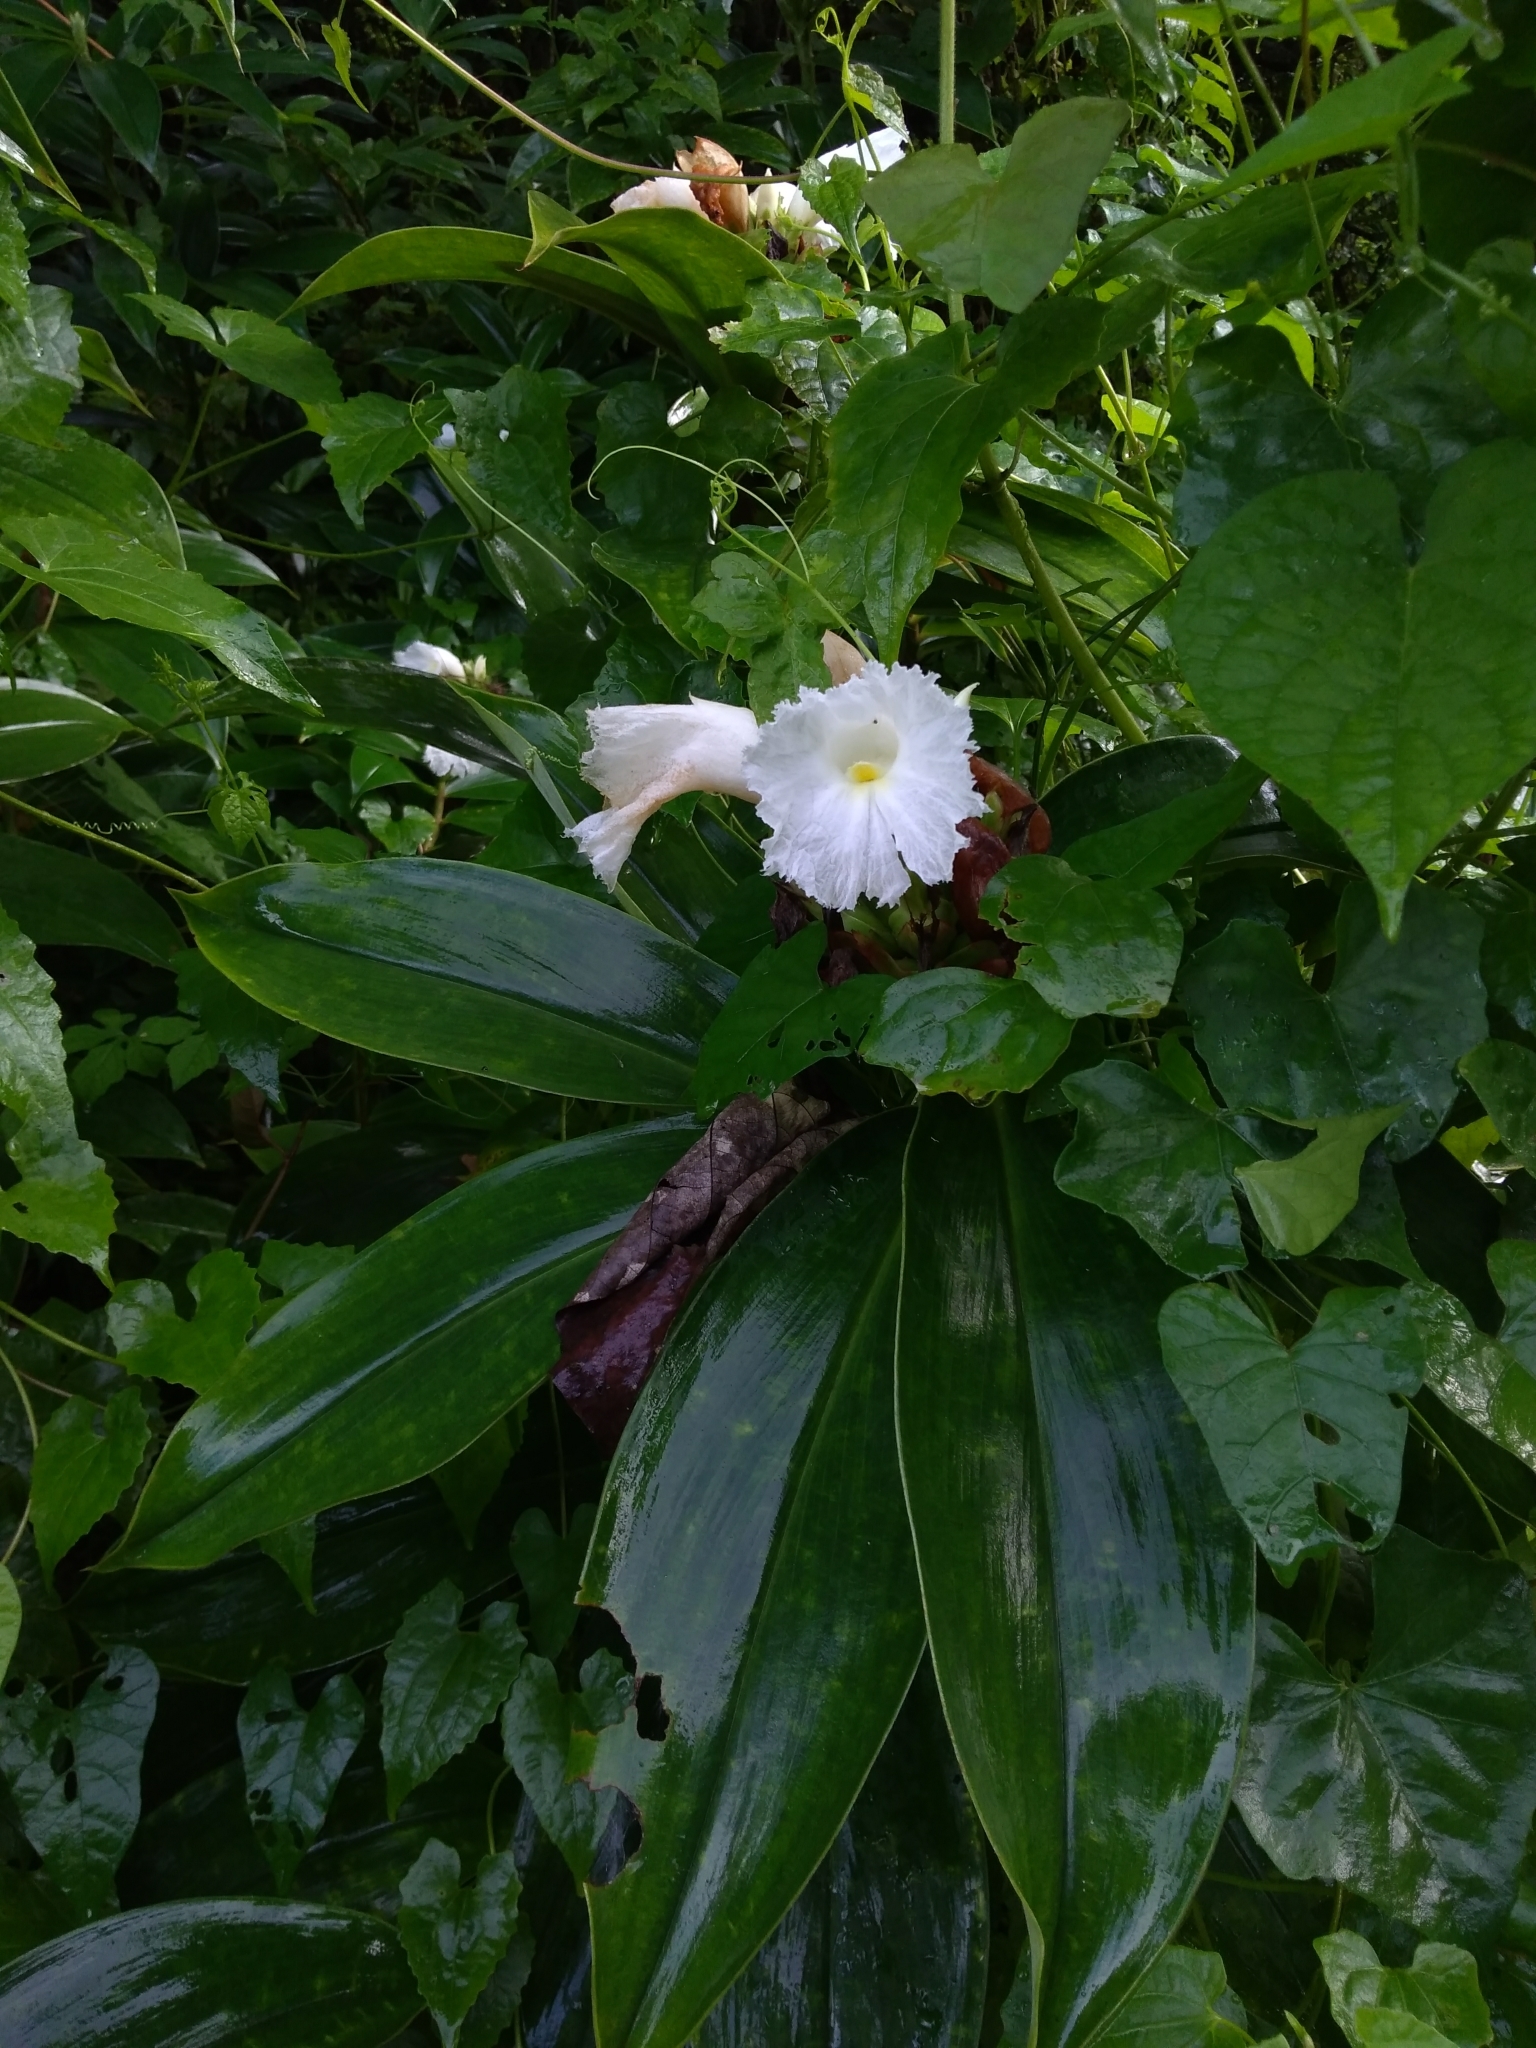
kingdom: Plantae
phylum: Tracheophyta
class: Liliopsida
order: Zingiberales
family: Costaceae
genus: Hellenia
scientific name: Hellenia speciosa
